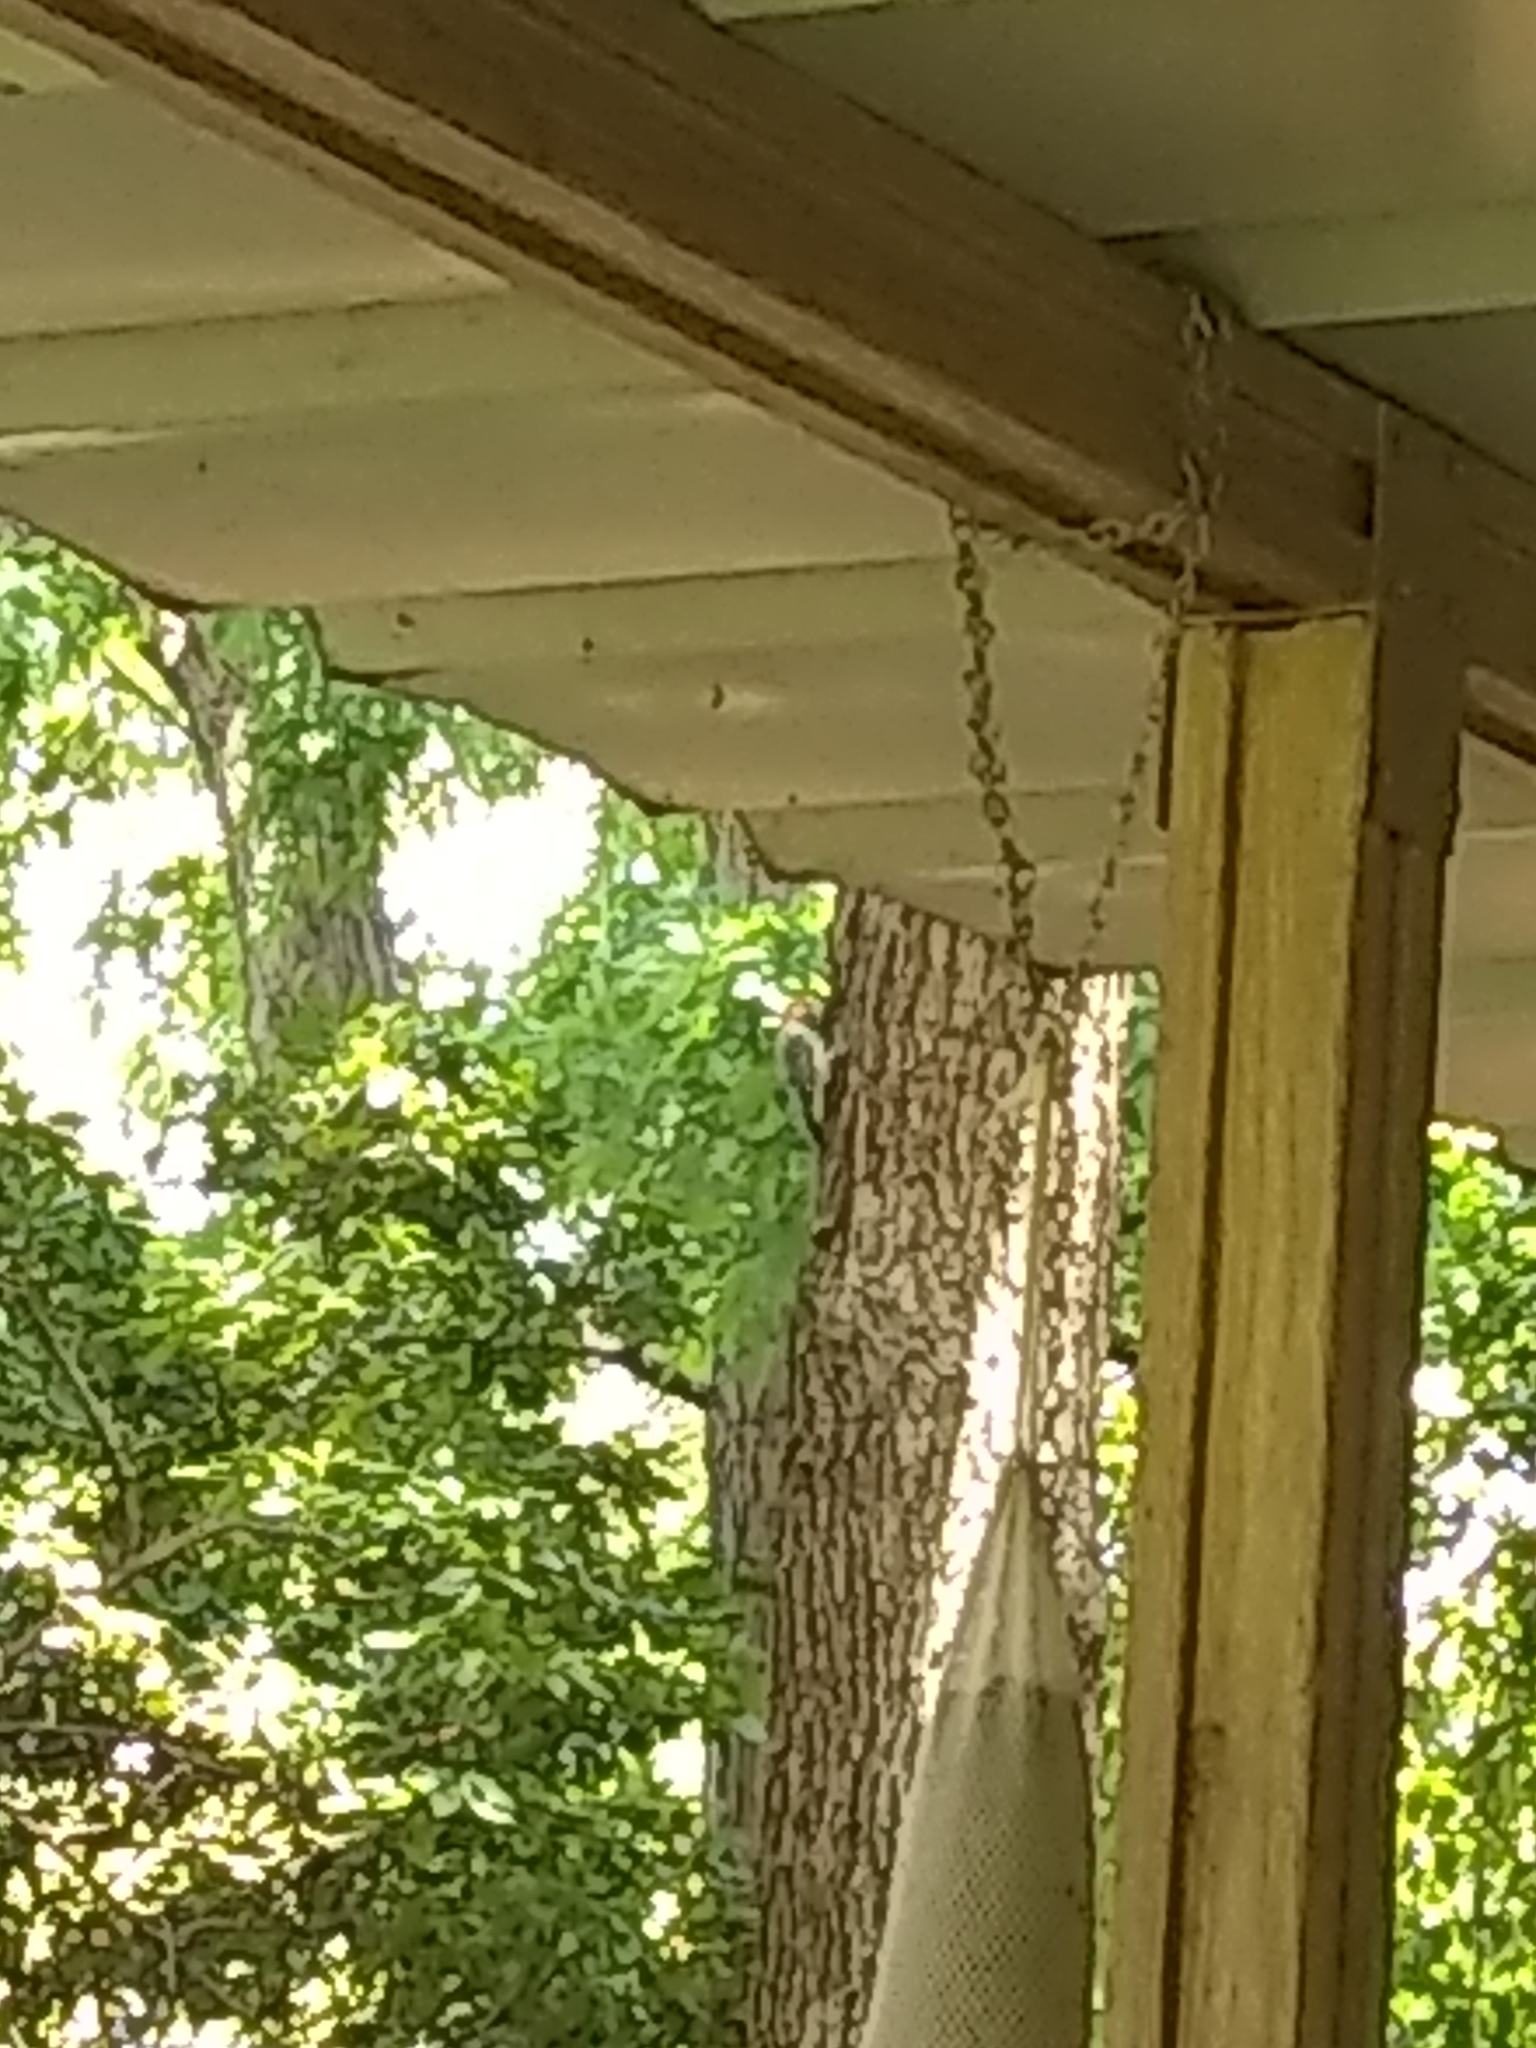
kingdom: Animalia
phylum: Chordata
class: Aves
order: Piciformes
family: Picidae
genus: Melanerpes
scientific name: Melanerpes carolinus
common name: Red-bellied woodpecker
